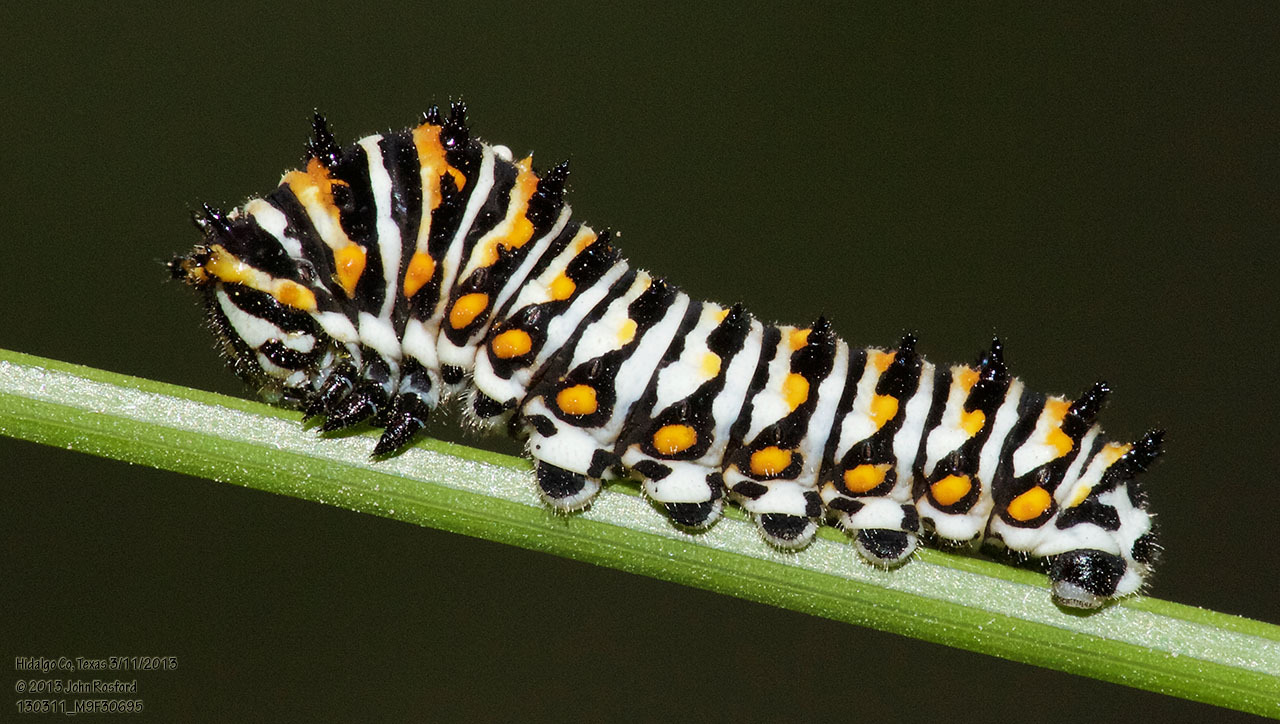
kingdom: Animalia
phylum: Arthropoda
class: Insecta
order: Lepidoptera
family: Papilionidae
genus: Papilio
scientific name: Papilio polyxenes
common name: Black swallowtail
